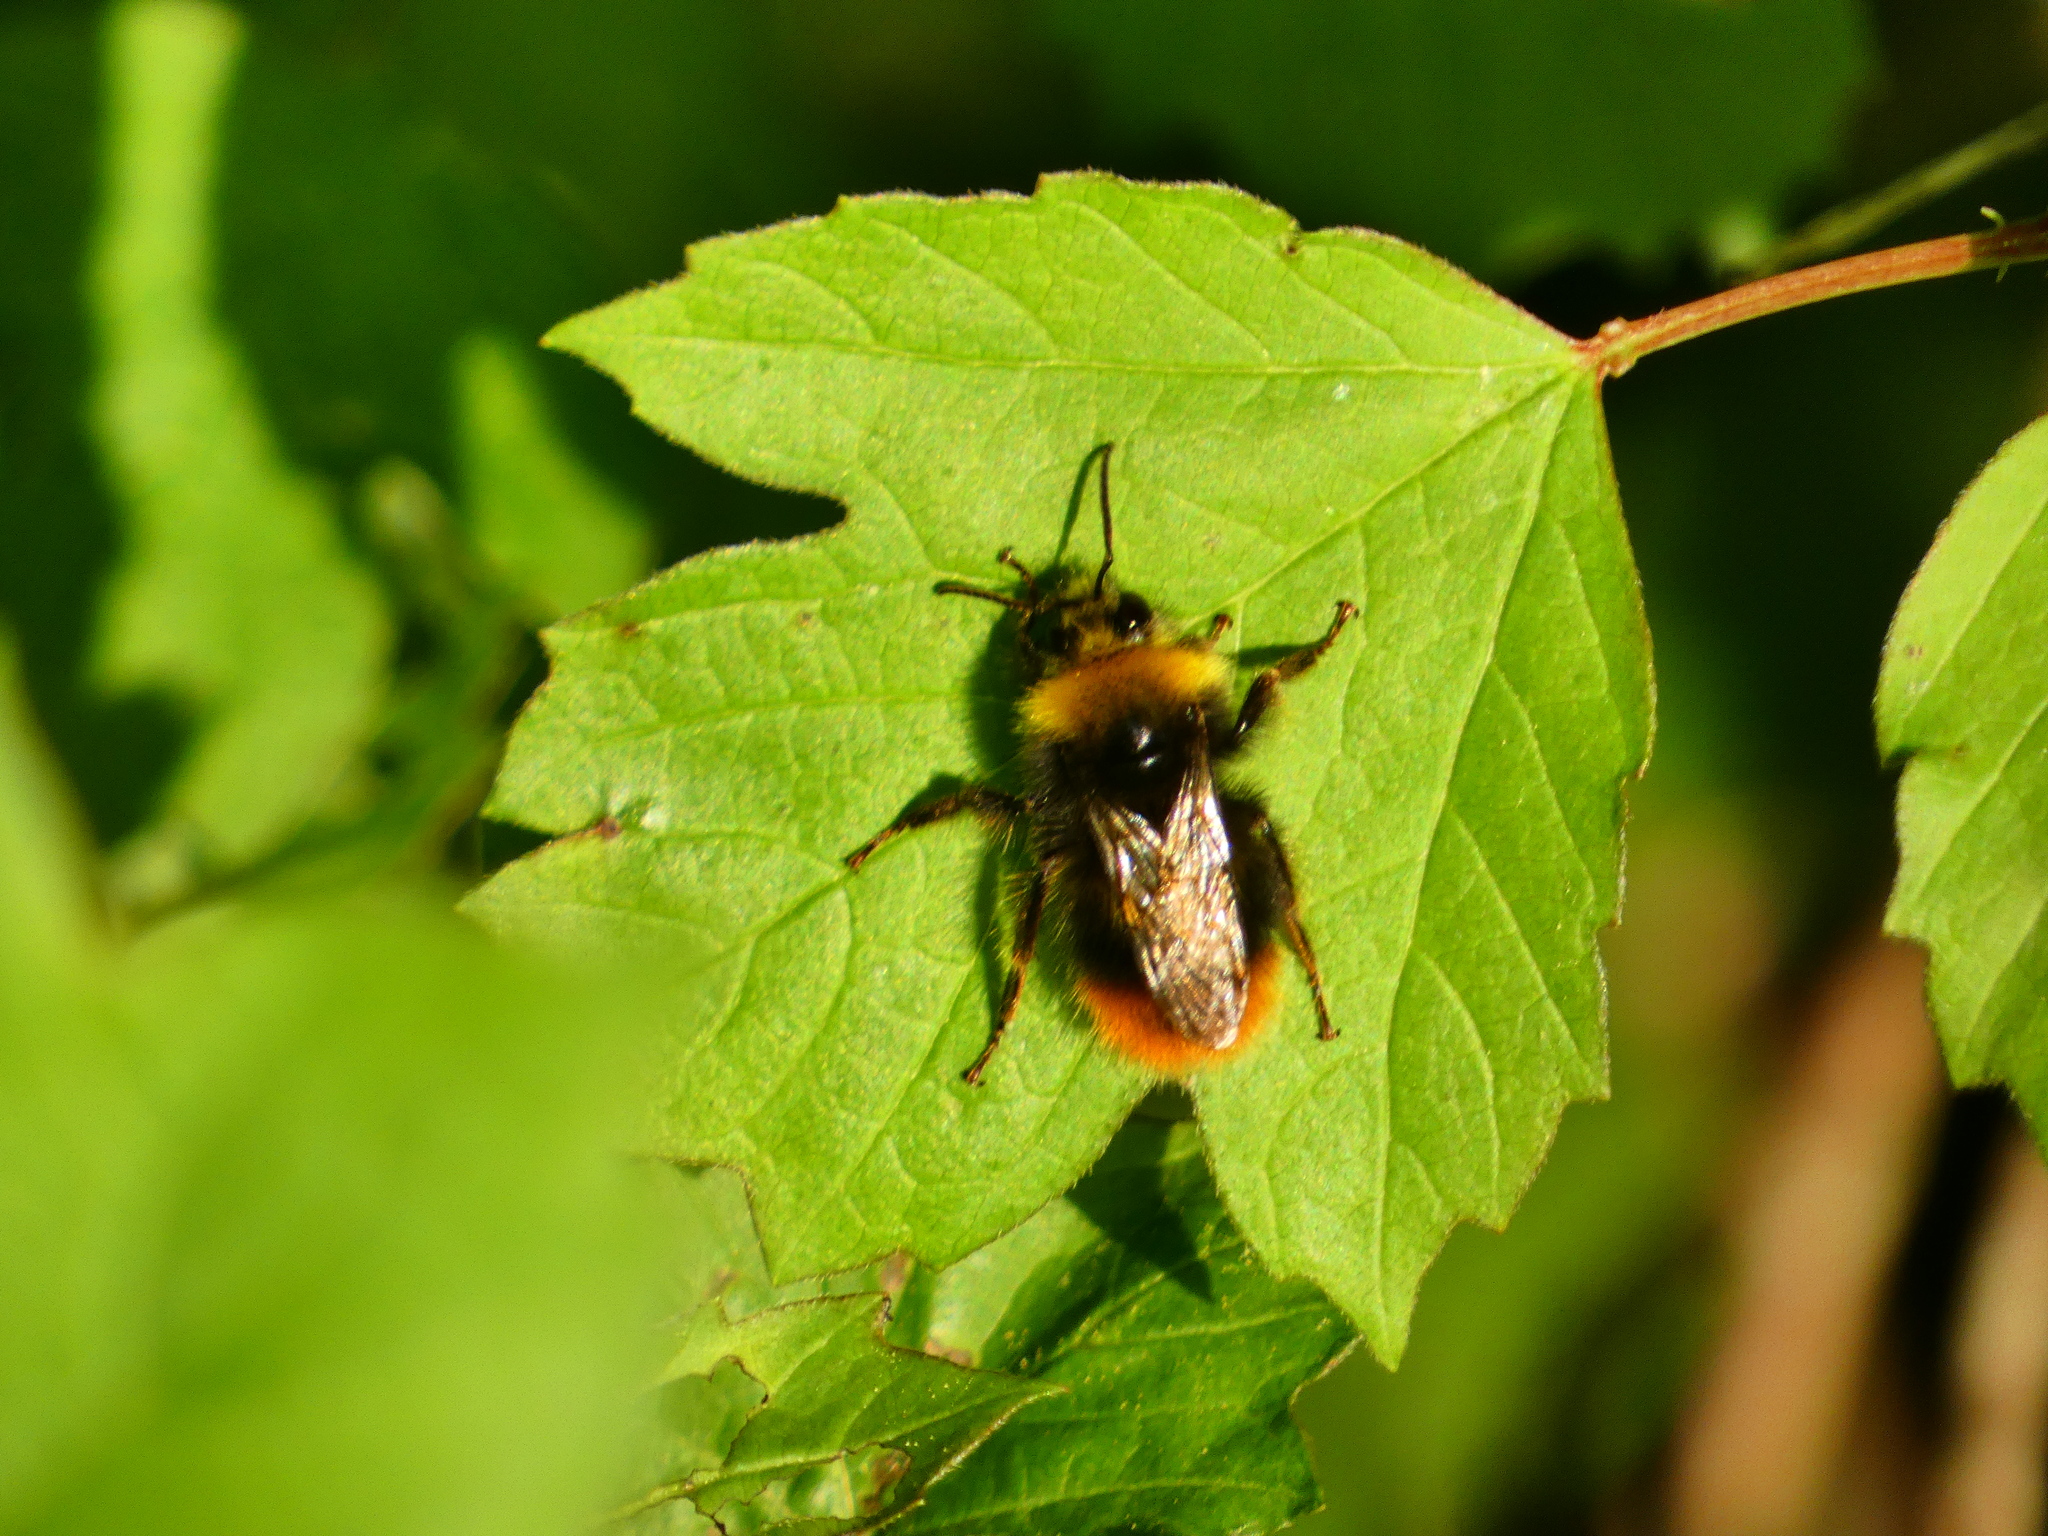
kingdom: Animalia
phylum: Arthropoda
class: Insecta
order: Hymenoptera
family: Apidae
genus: Bombus
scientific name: Bombus pratorum
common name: Early humble-bee
